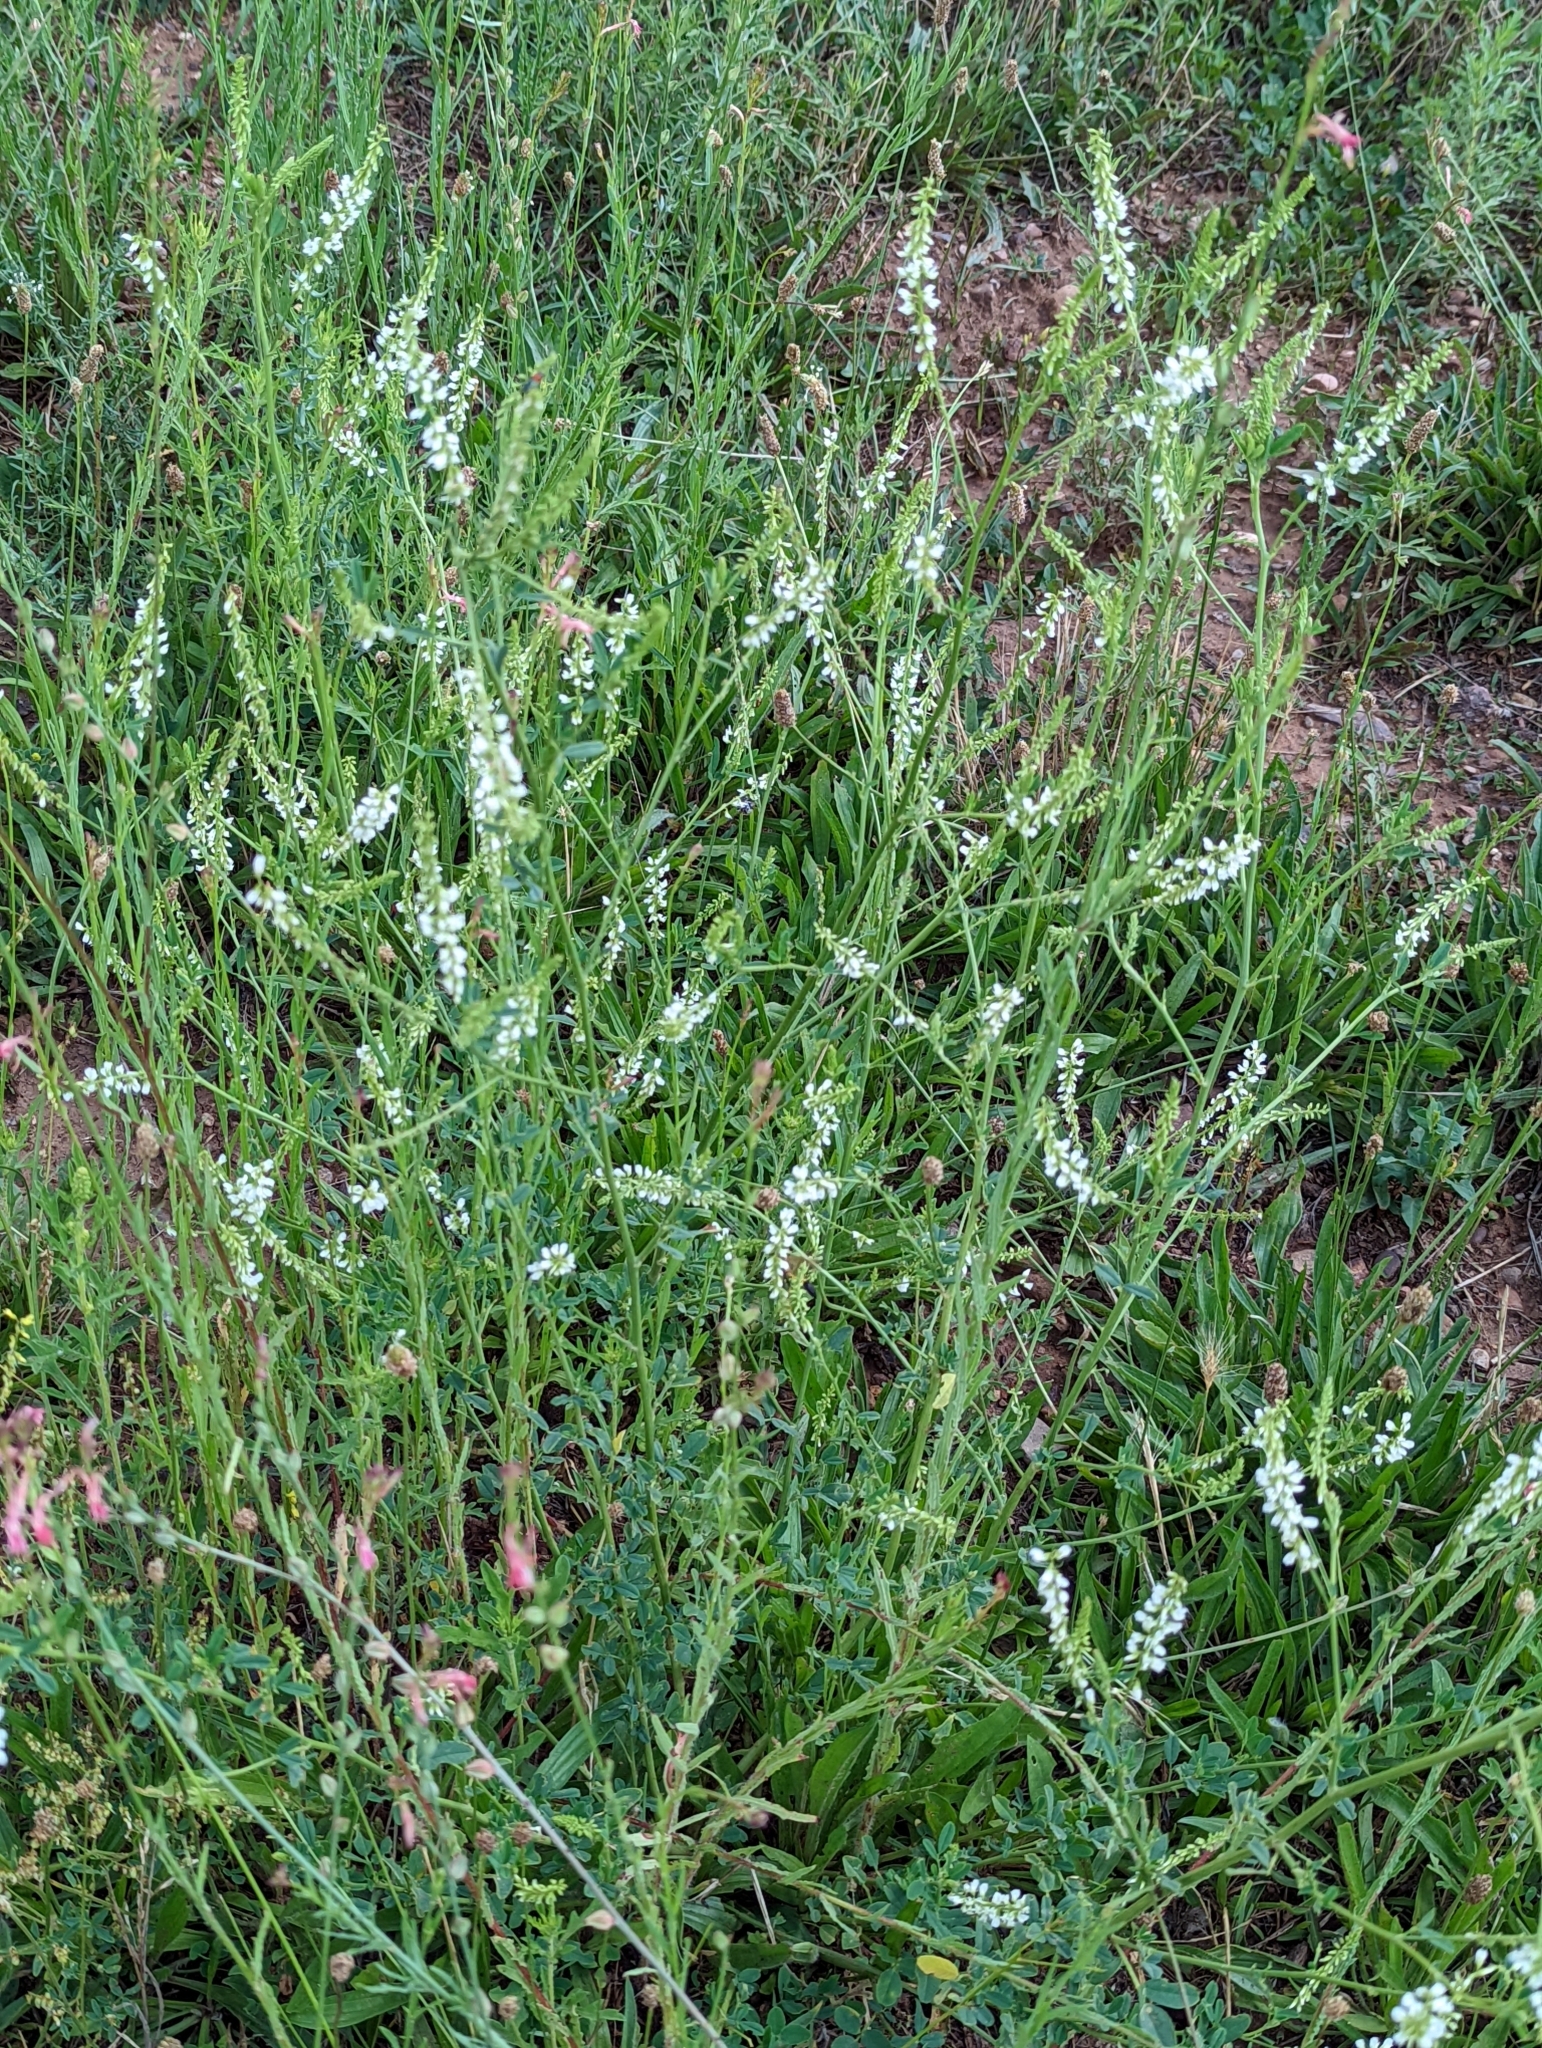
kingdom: Plantae
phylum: Tracheophyta
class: Magnoliopsida
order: Fabales
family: Fabaceae
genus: Melilotus
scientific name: Melilotus albus
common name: White melilot
